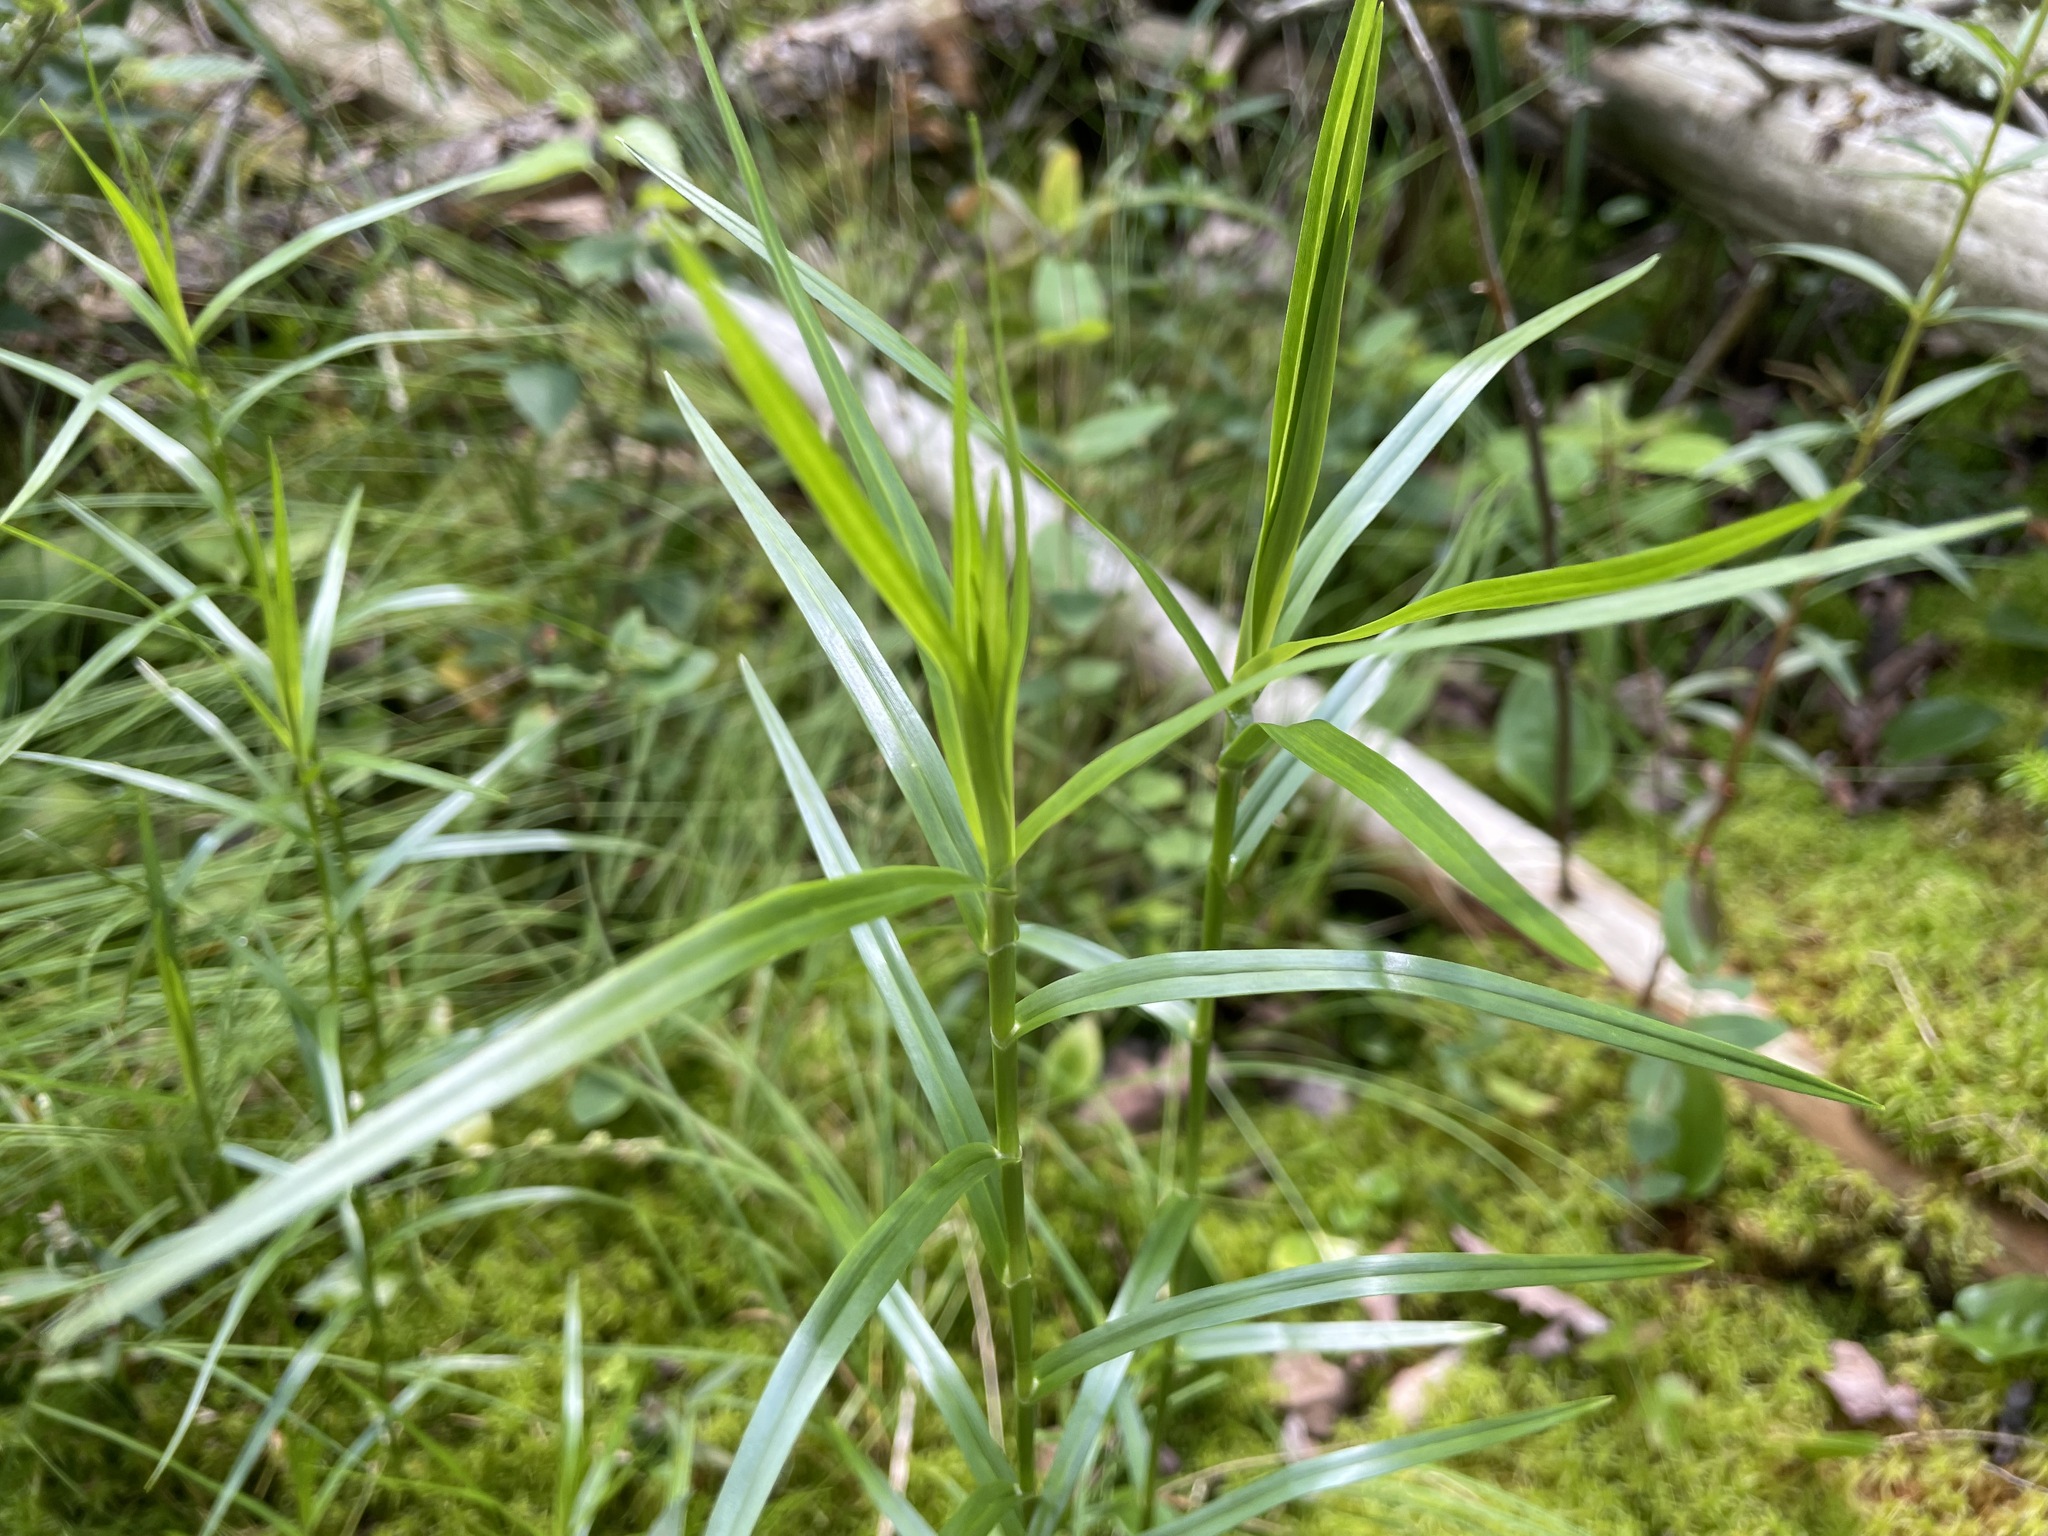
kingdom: Plantae
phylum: Tracheophyta
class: Liliopsida
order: Poales
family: Cyperaceae
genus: Dulichium
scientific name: Dulichium arundinaceum
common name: Three-way sedge
